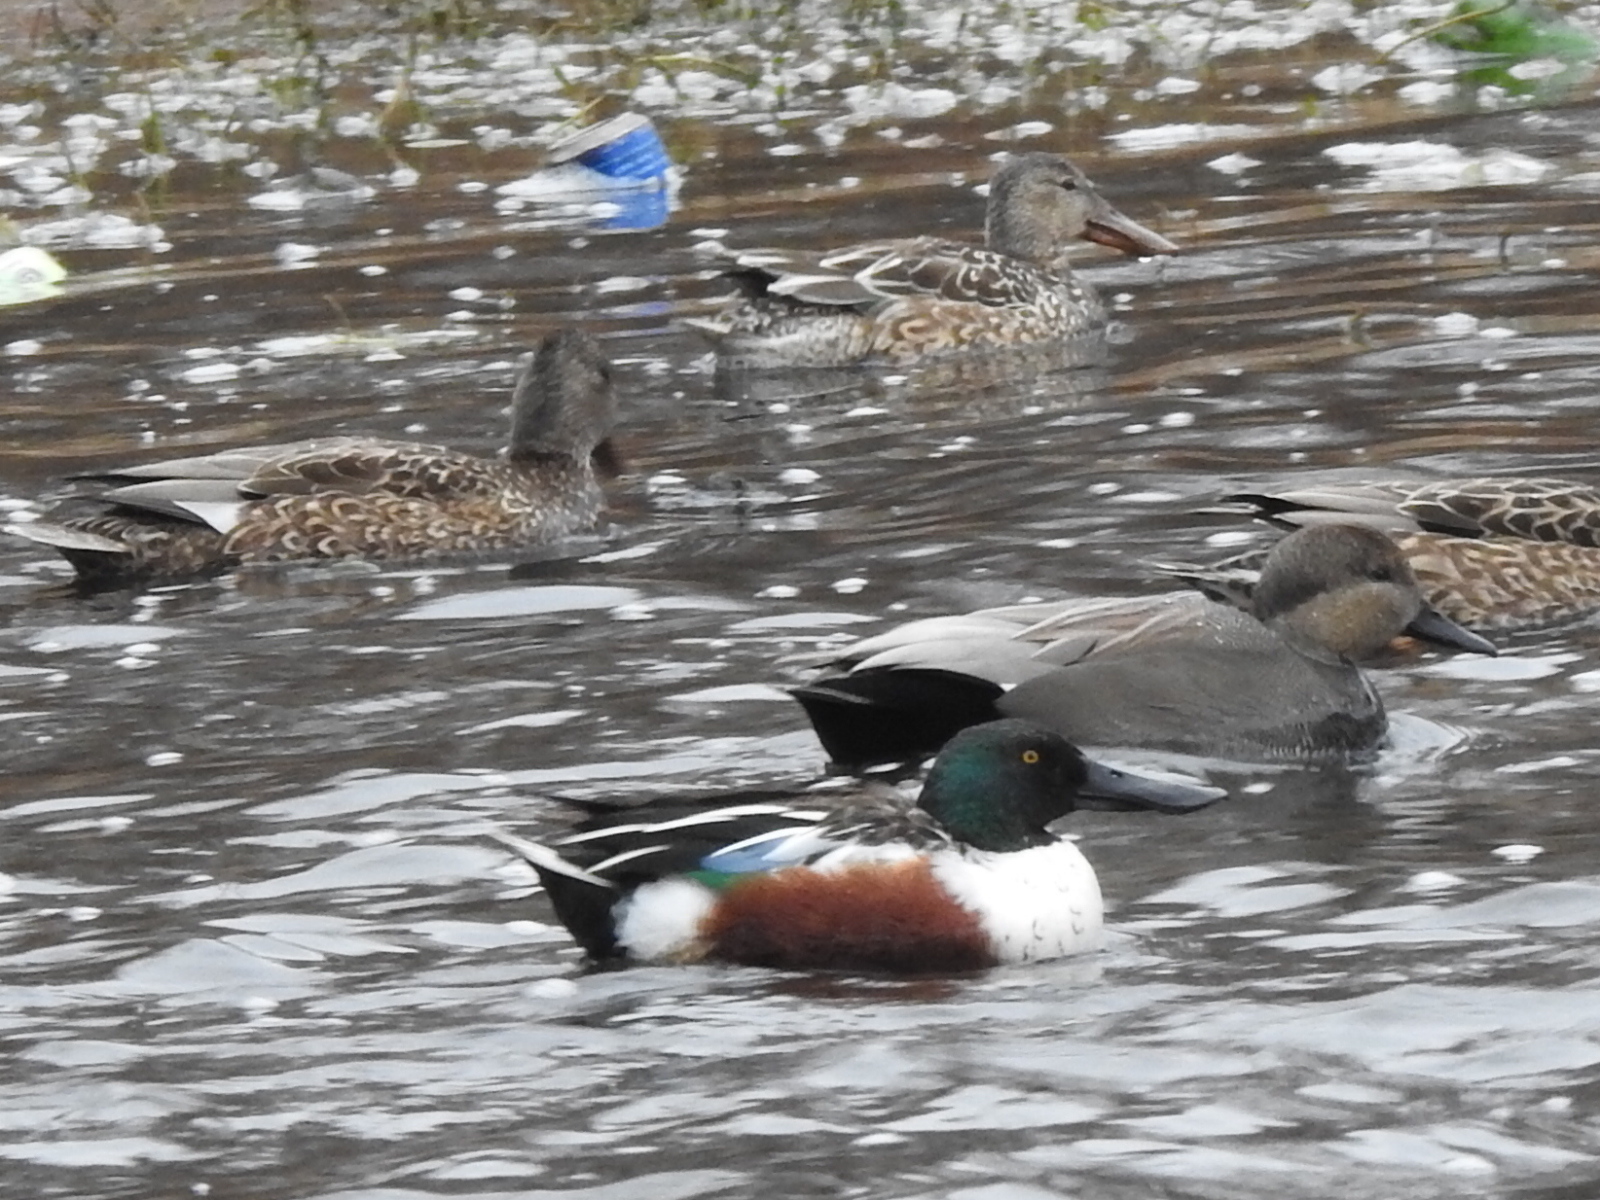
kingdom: Animalia
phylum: Chordata
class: Aves
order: Anseriformes
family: Anatidae
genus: Spatula
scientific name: Spatula clypeata
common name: Northern shoveler
